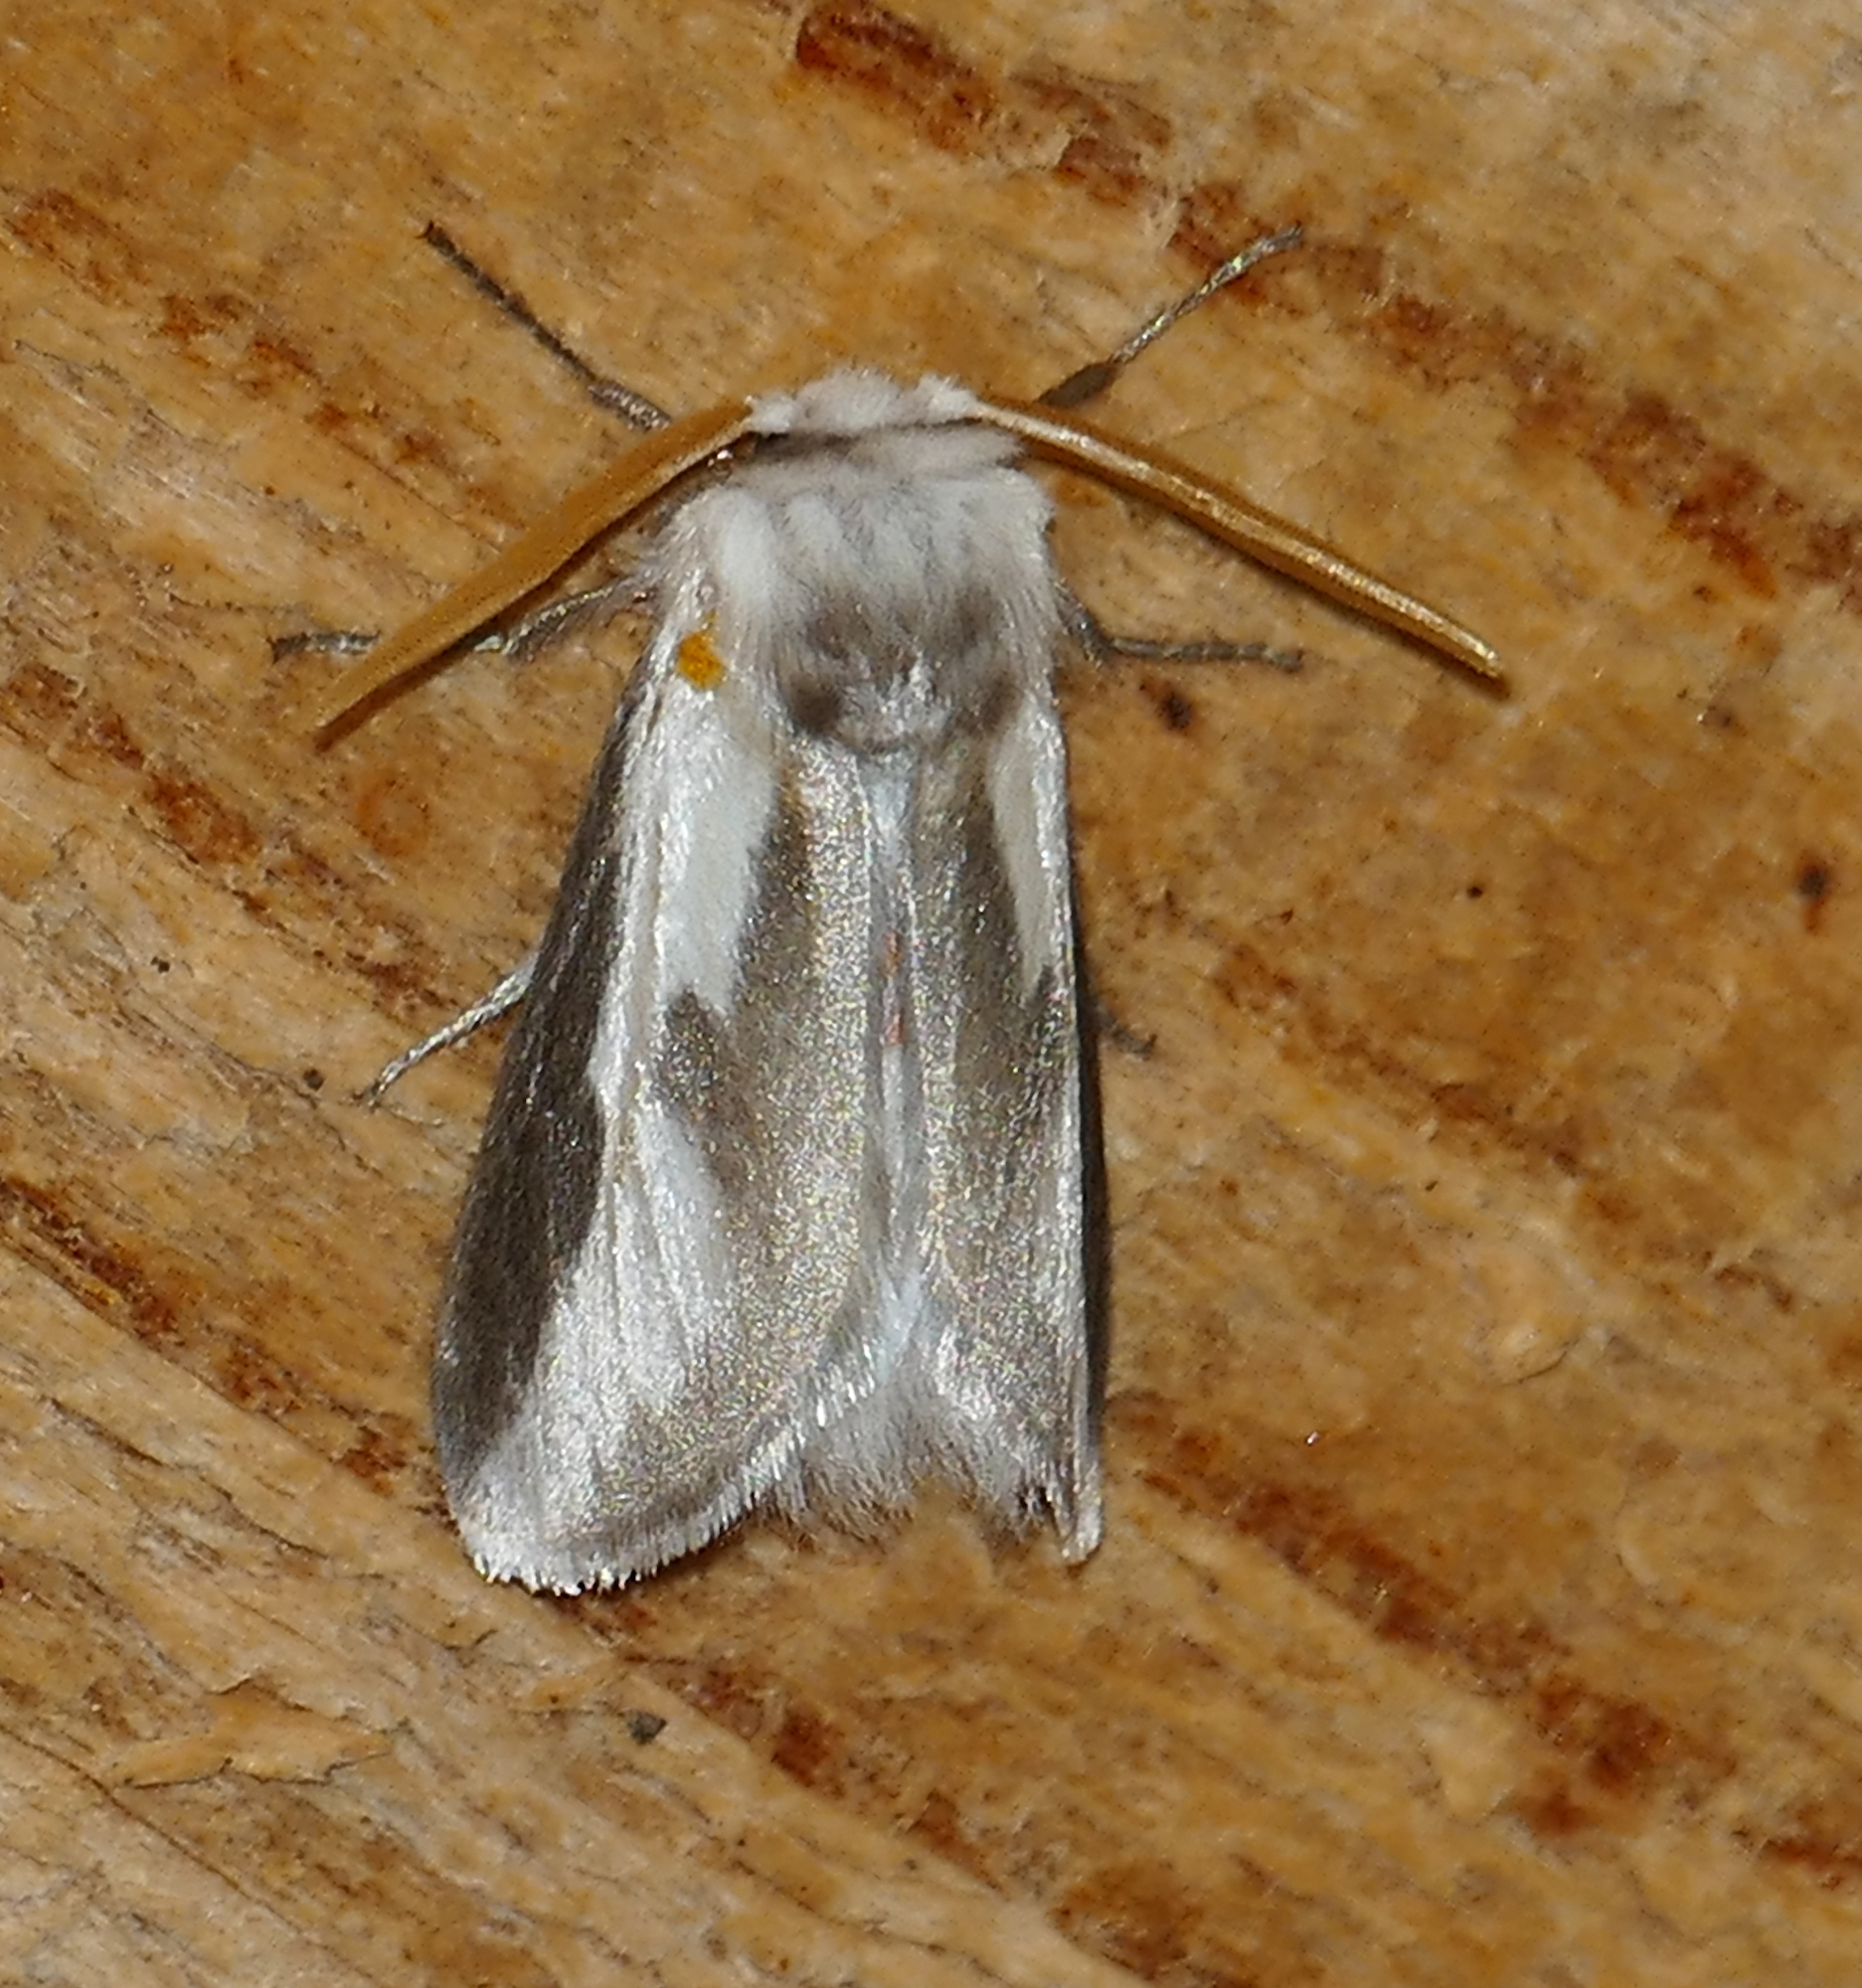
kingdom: Animalia
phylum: Arthropoda
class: Insecta
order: Lepidoptera
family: Megalopygidae
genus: Norape
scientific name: Norape tener
